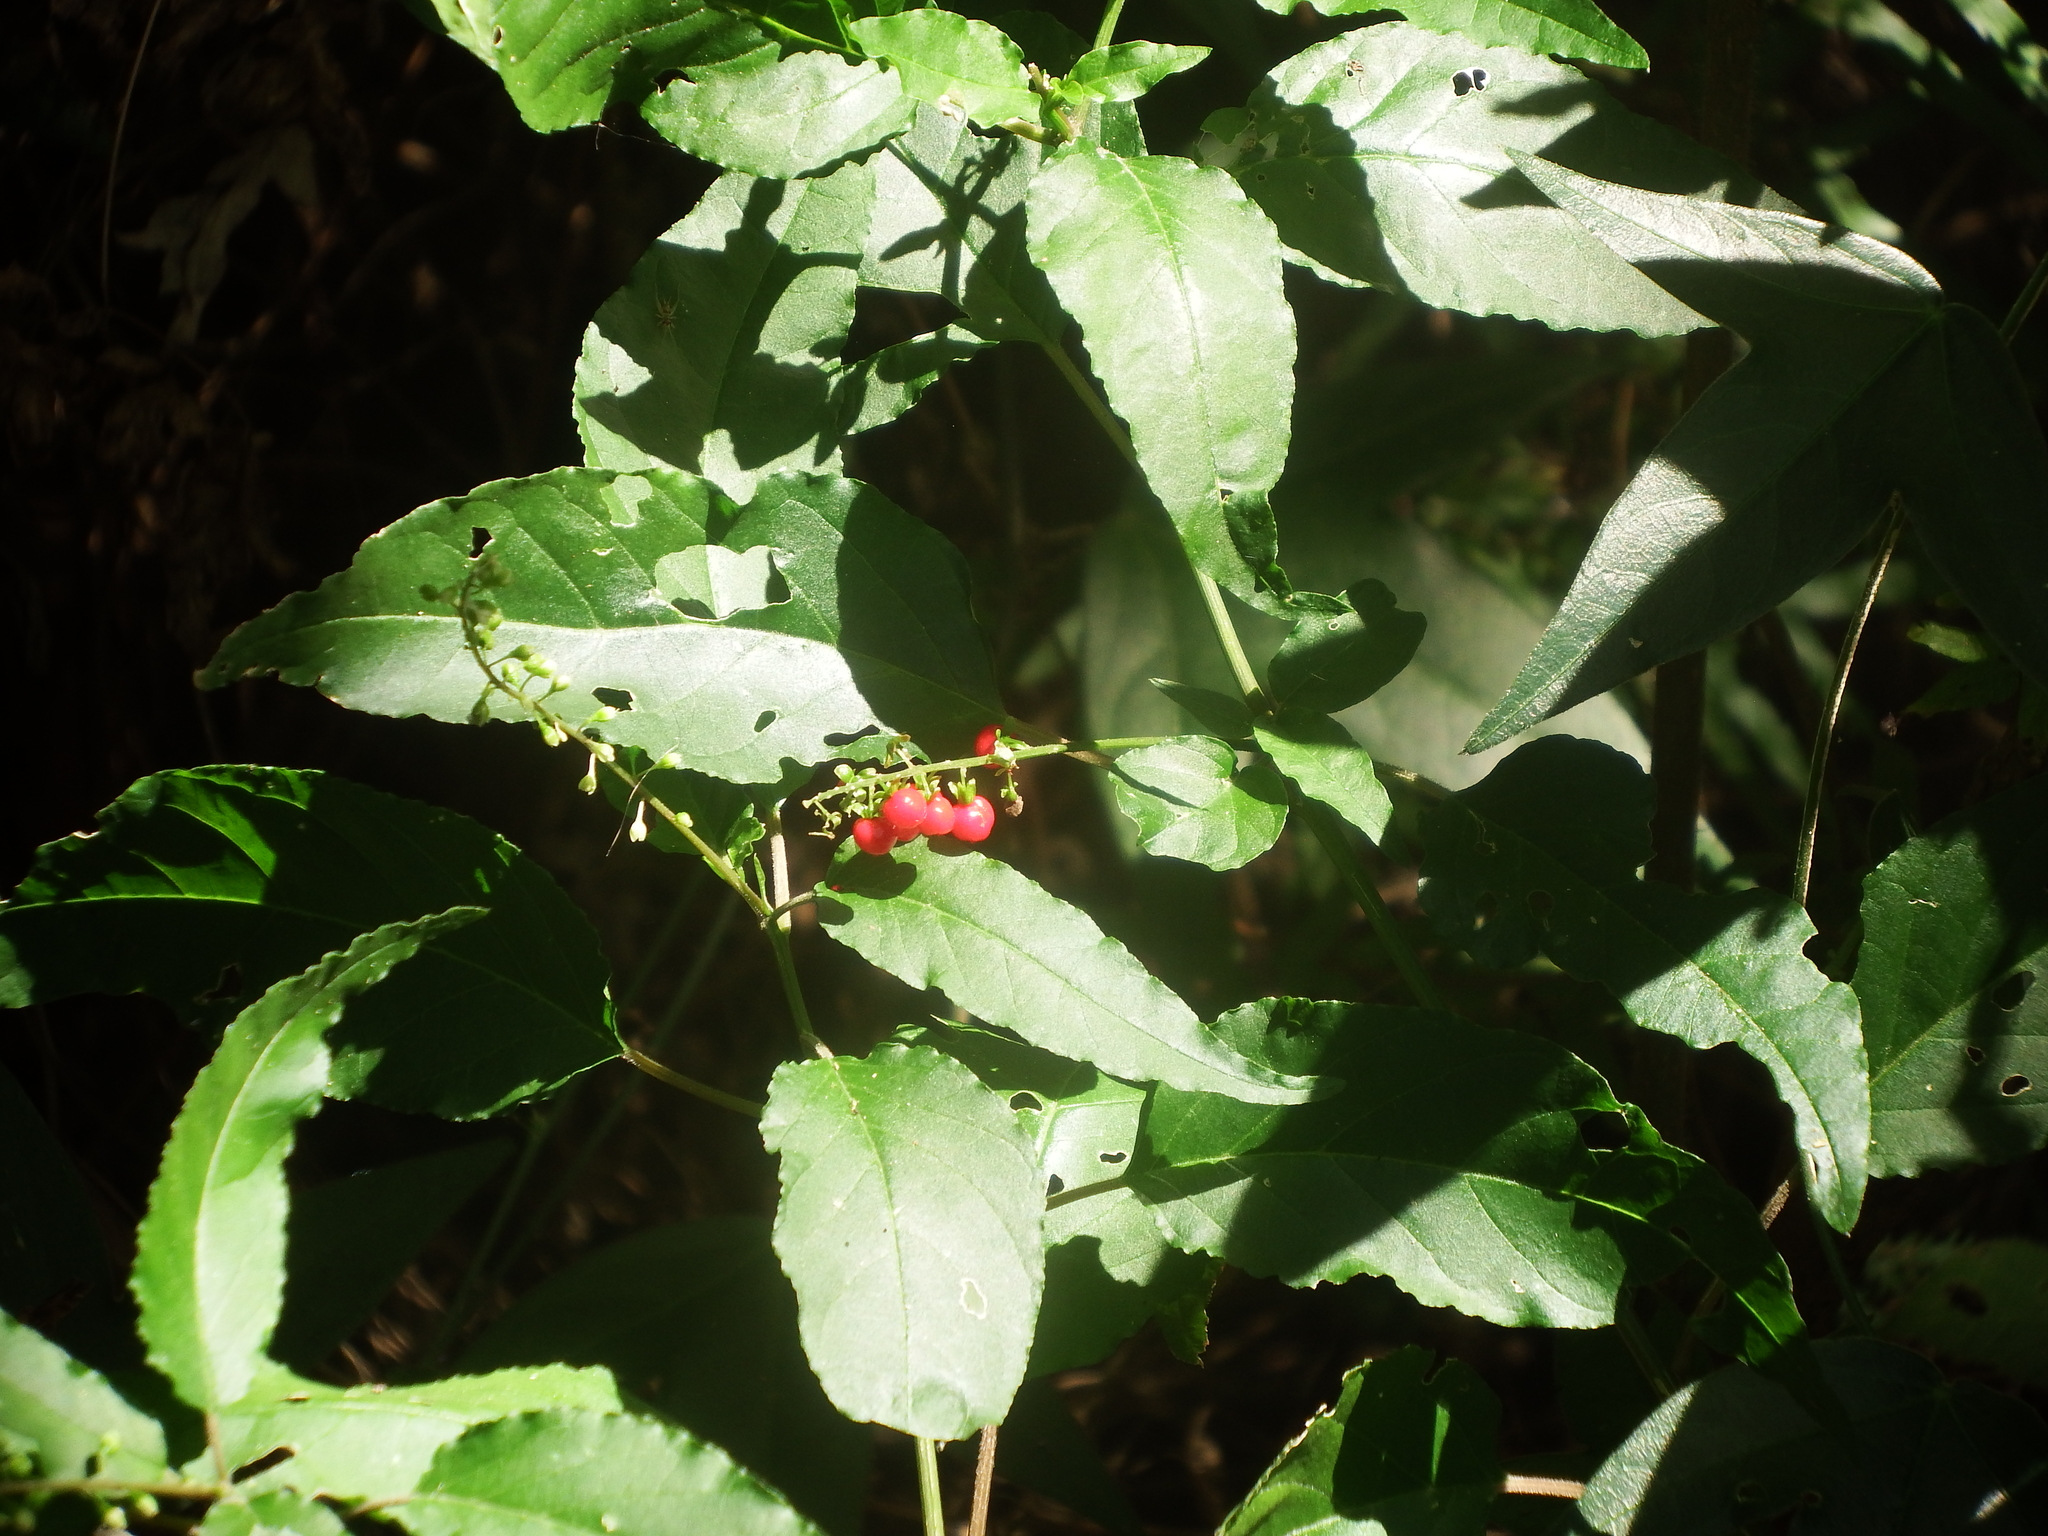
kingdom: Plantae
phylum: Tracheophyta
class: Magnoliopsida
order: Caryophyllales
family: Phytolaccaceae
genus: Rivina
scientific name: Rivina humilis
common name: Rougeplant
